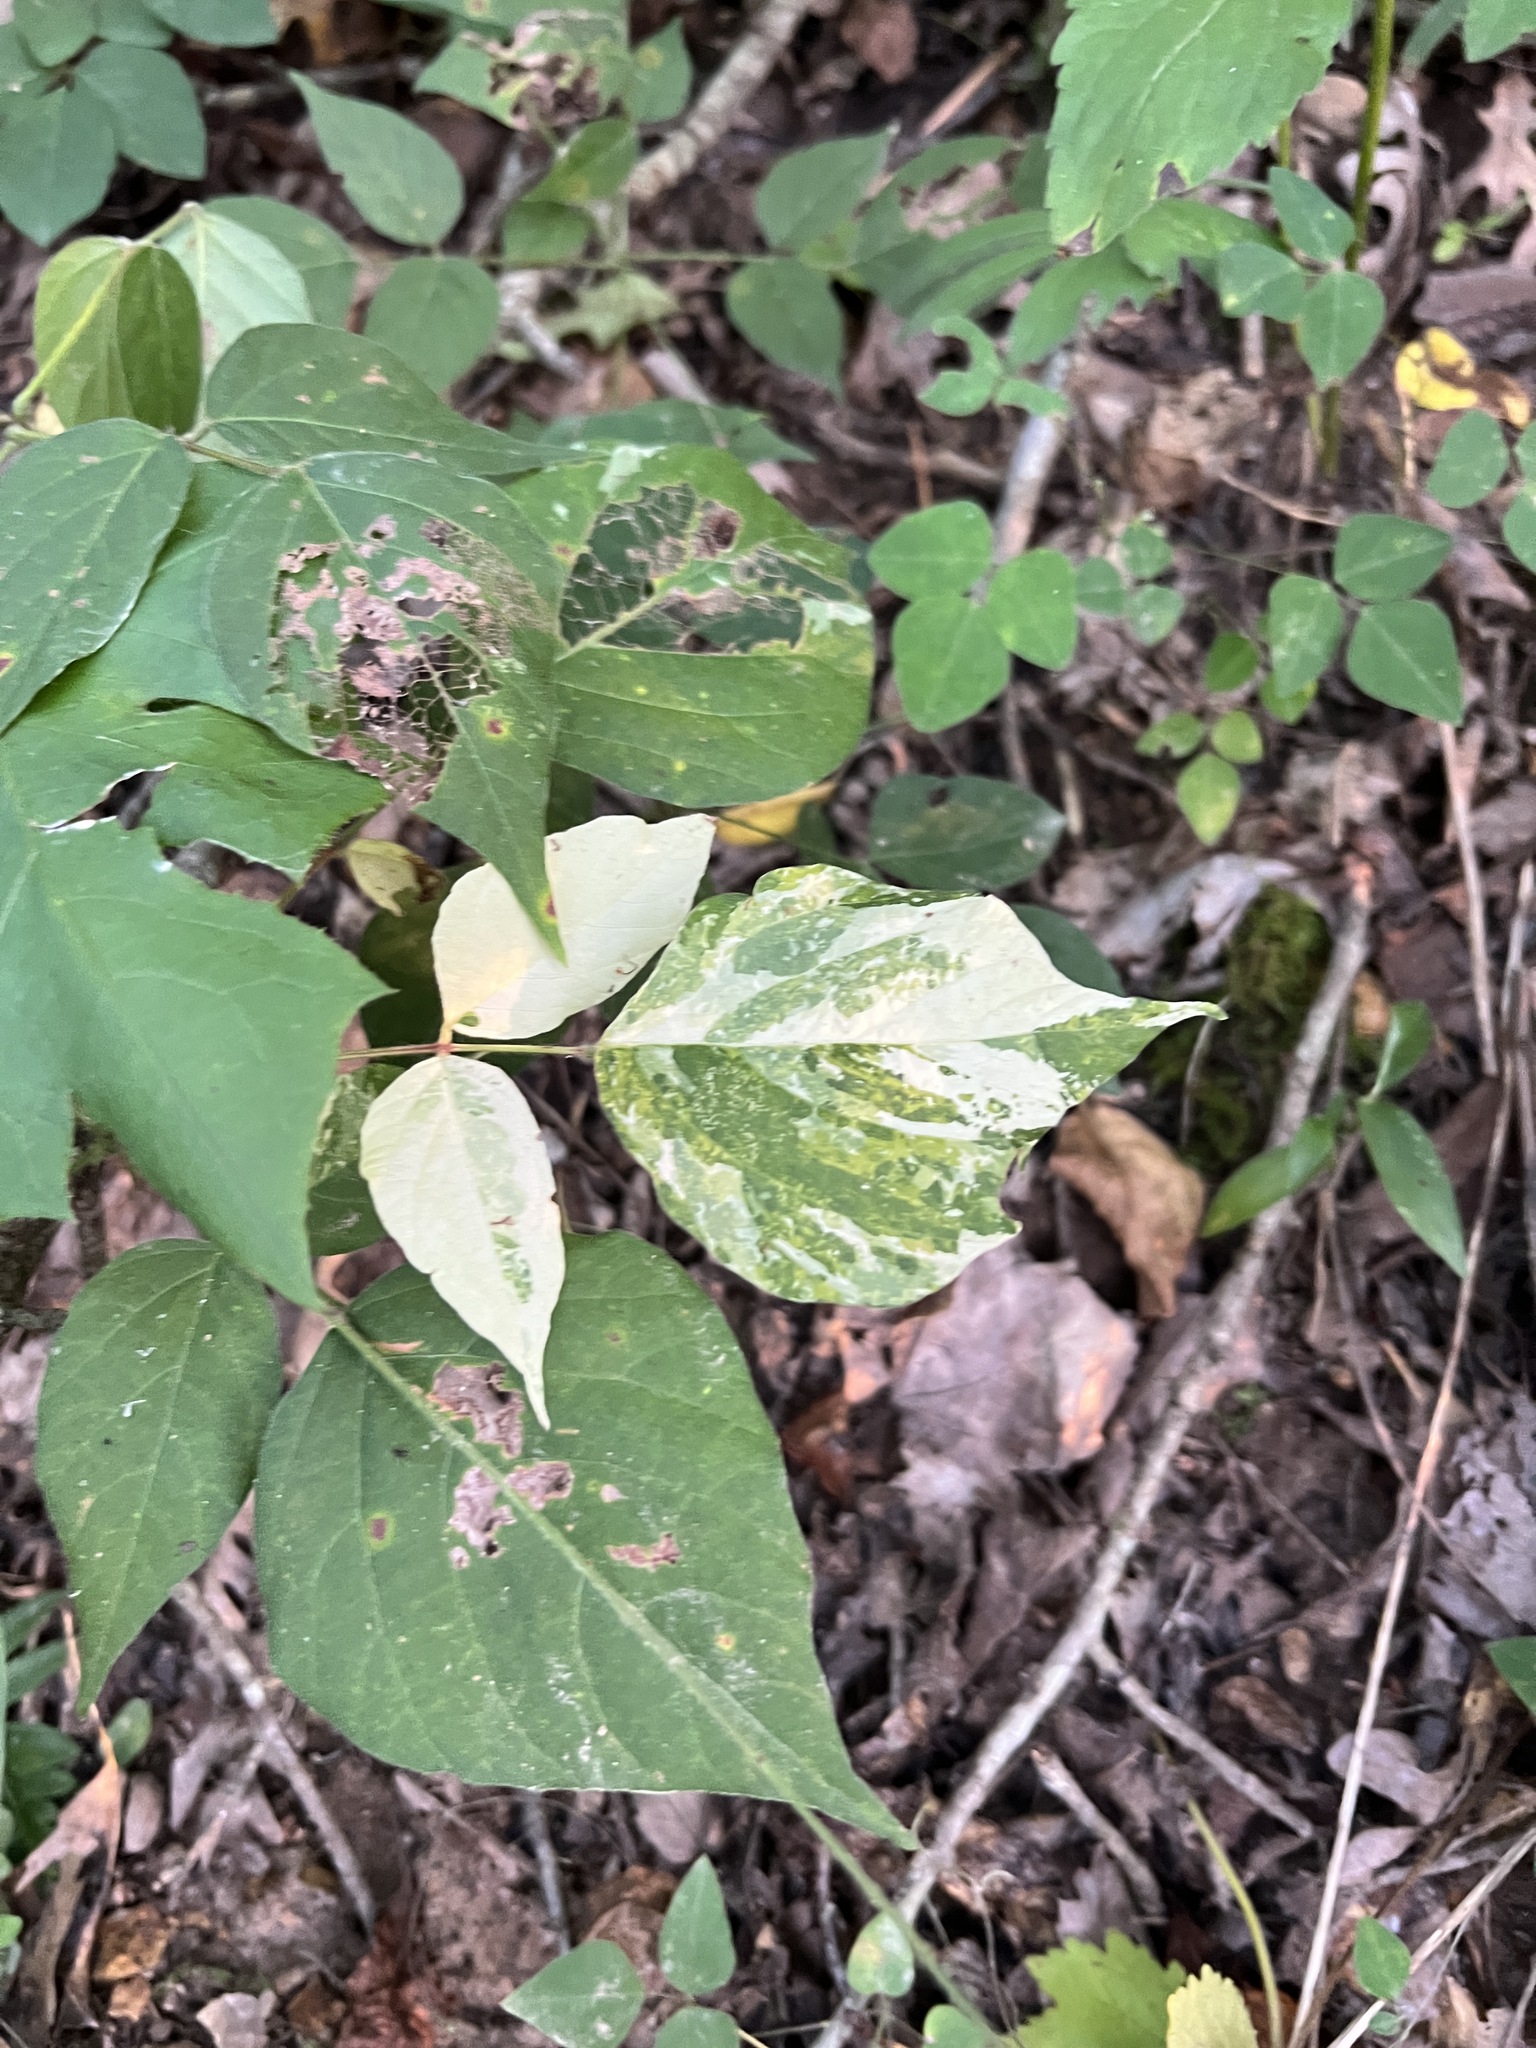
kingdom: Plantae
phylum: Tracheophyta
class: Magnoliopsida
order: Fabales
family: Fabaceae
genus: Hylodesmum
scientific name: Hylodesmum glutinosum
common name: Clustered-leaved tick-trefoil
